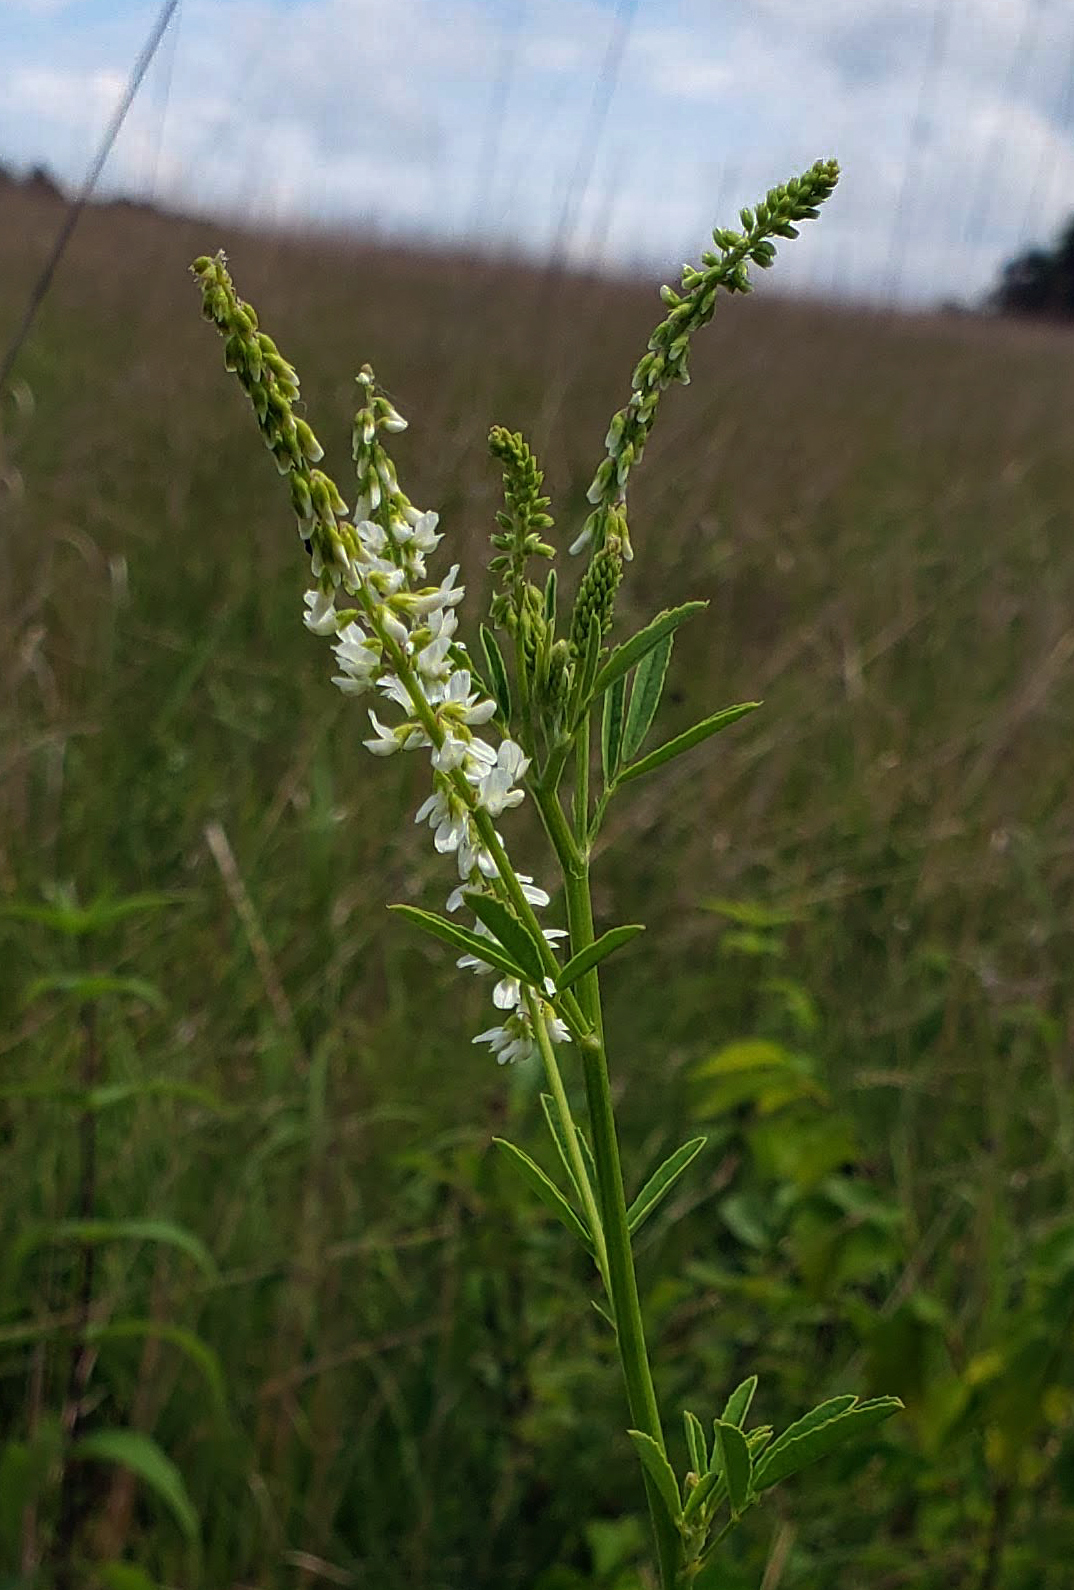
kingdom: Plantae
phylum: Tracheophyta
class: Magnoliopsida
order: Fabales
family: Fabaceae
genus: Melilotus
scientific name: Melilotus albus
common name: White melilot
